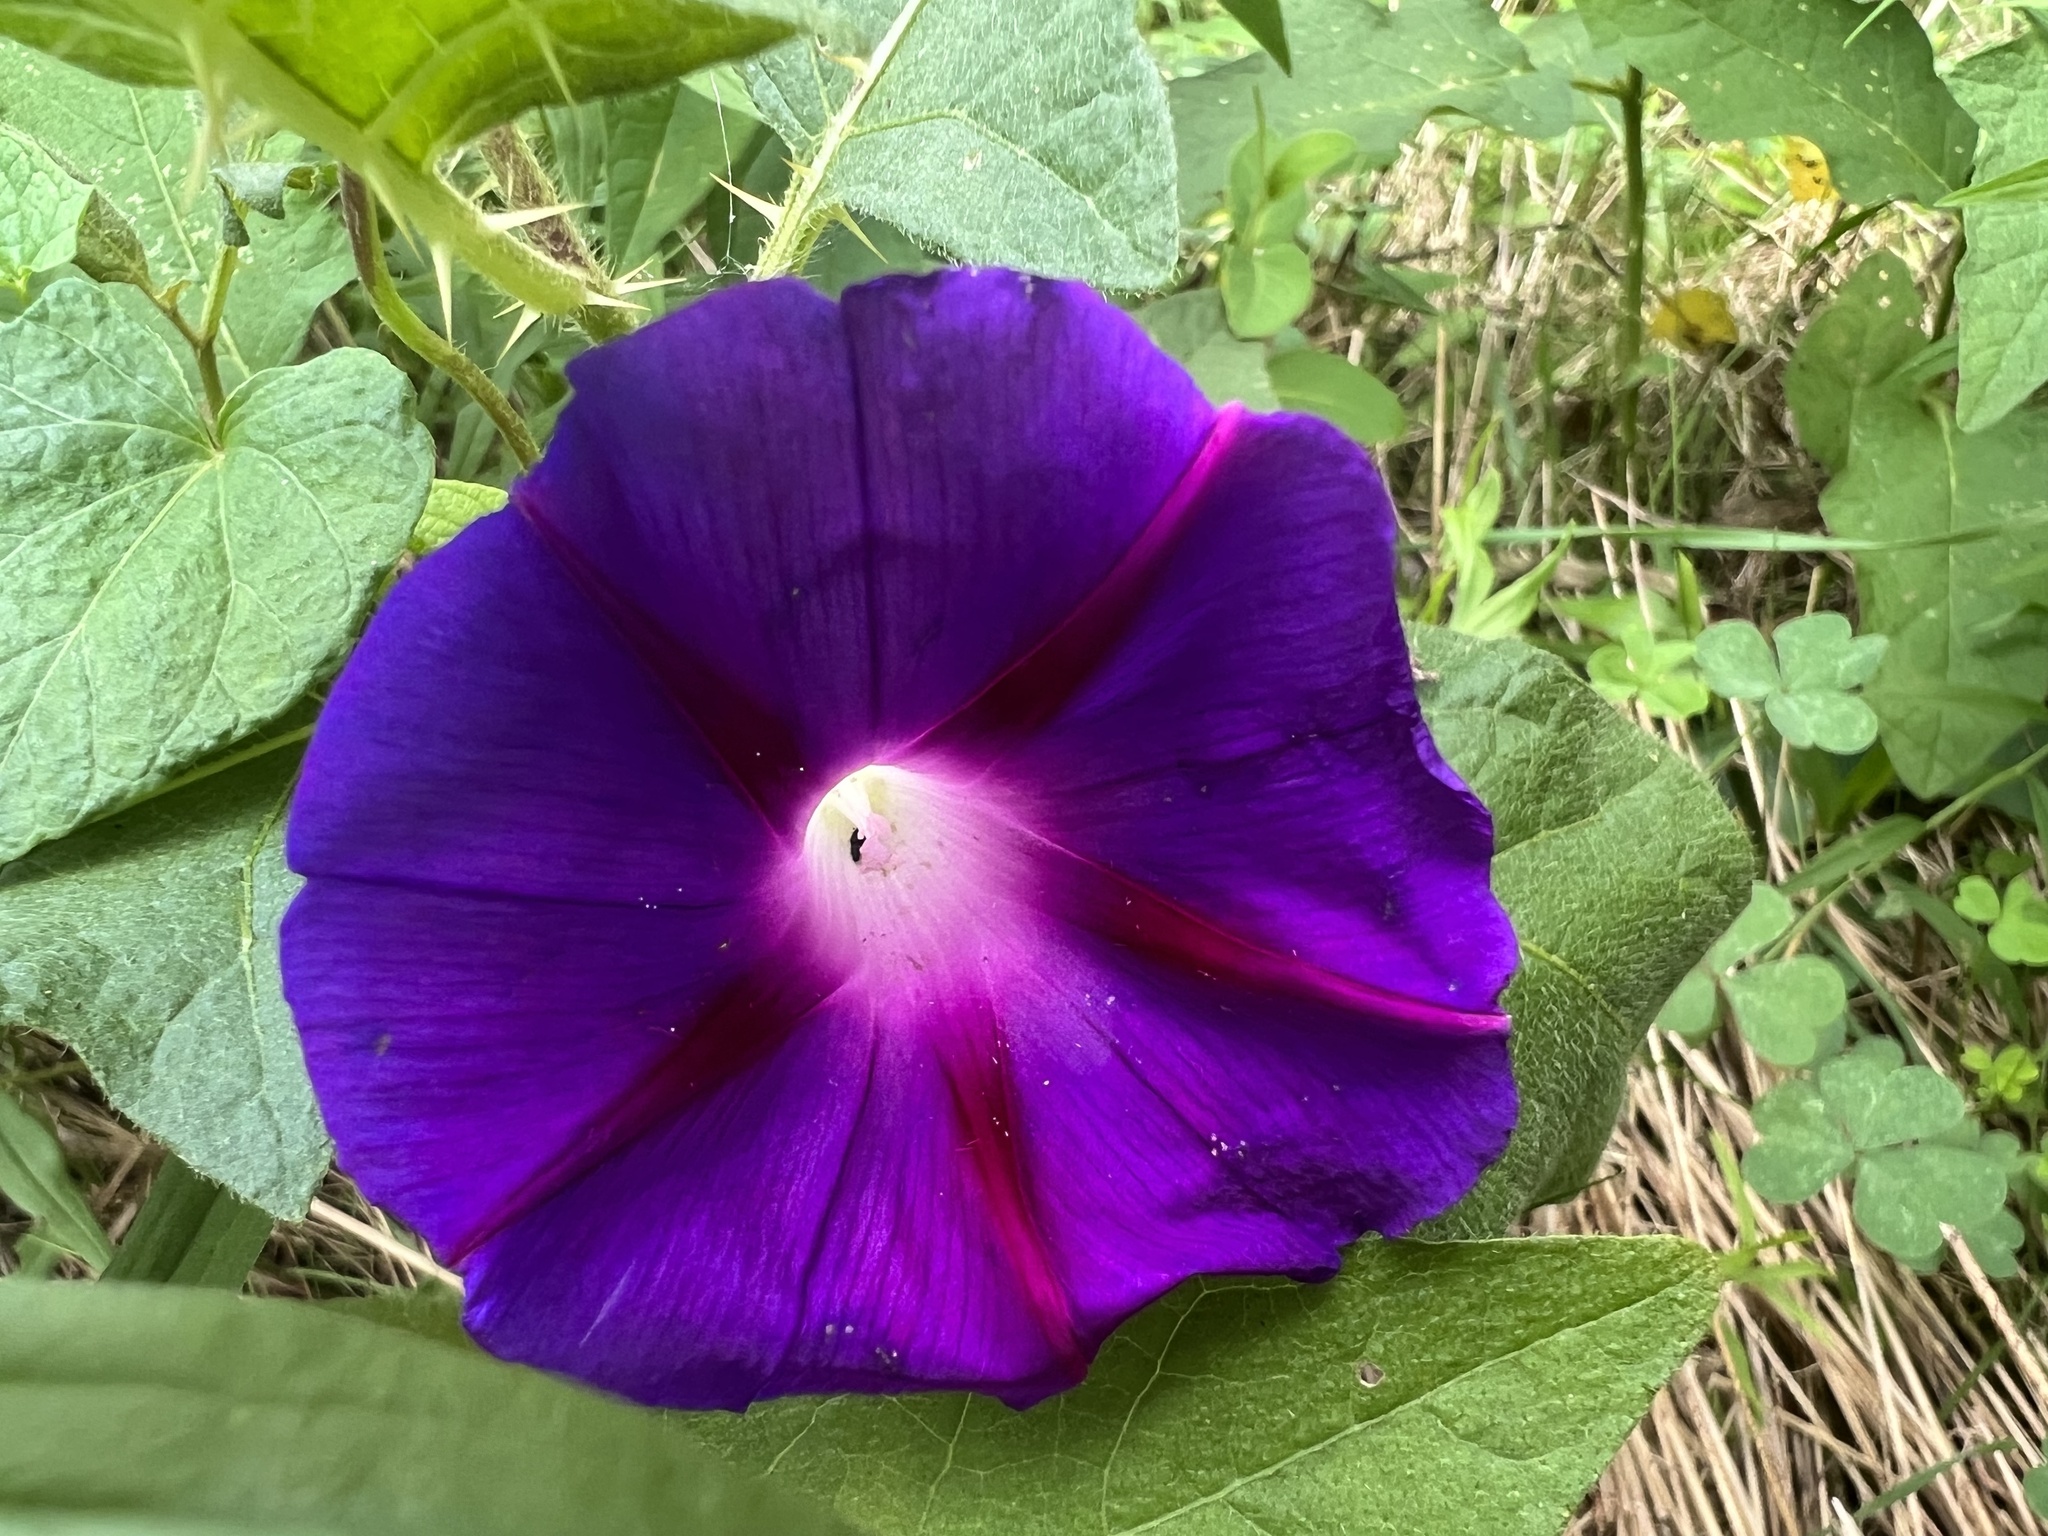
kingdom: Plantae
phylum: Tracheophyta
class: Magnoliopsida
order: Solanales
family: Convolvulaceae
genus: Ipomoea
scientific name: Ipomoea purpurea
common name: Common morning-glory
